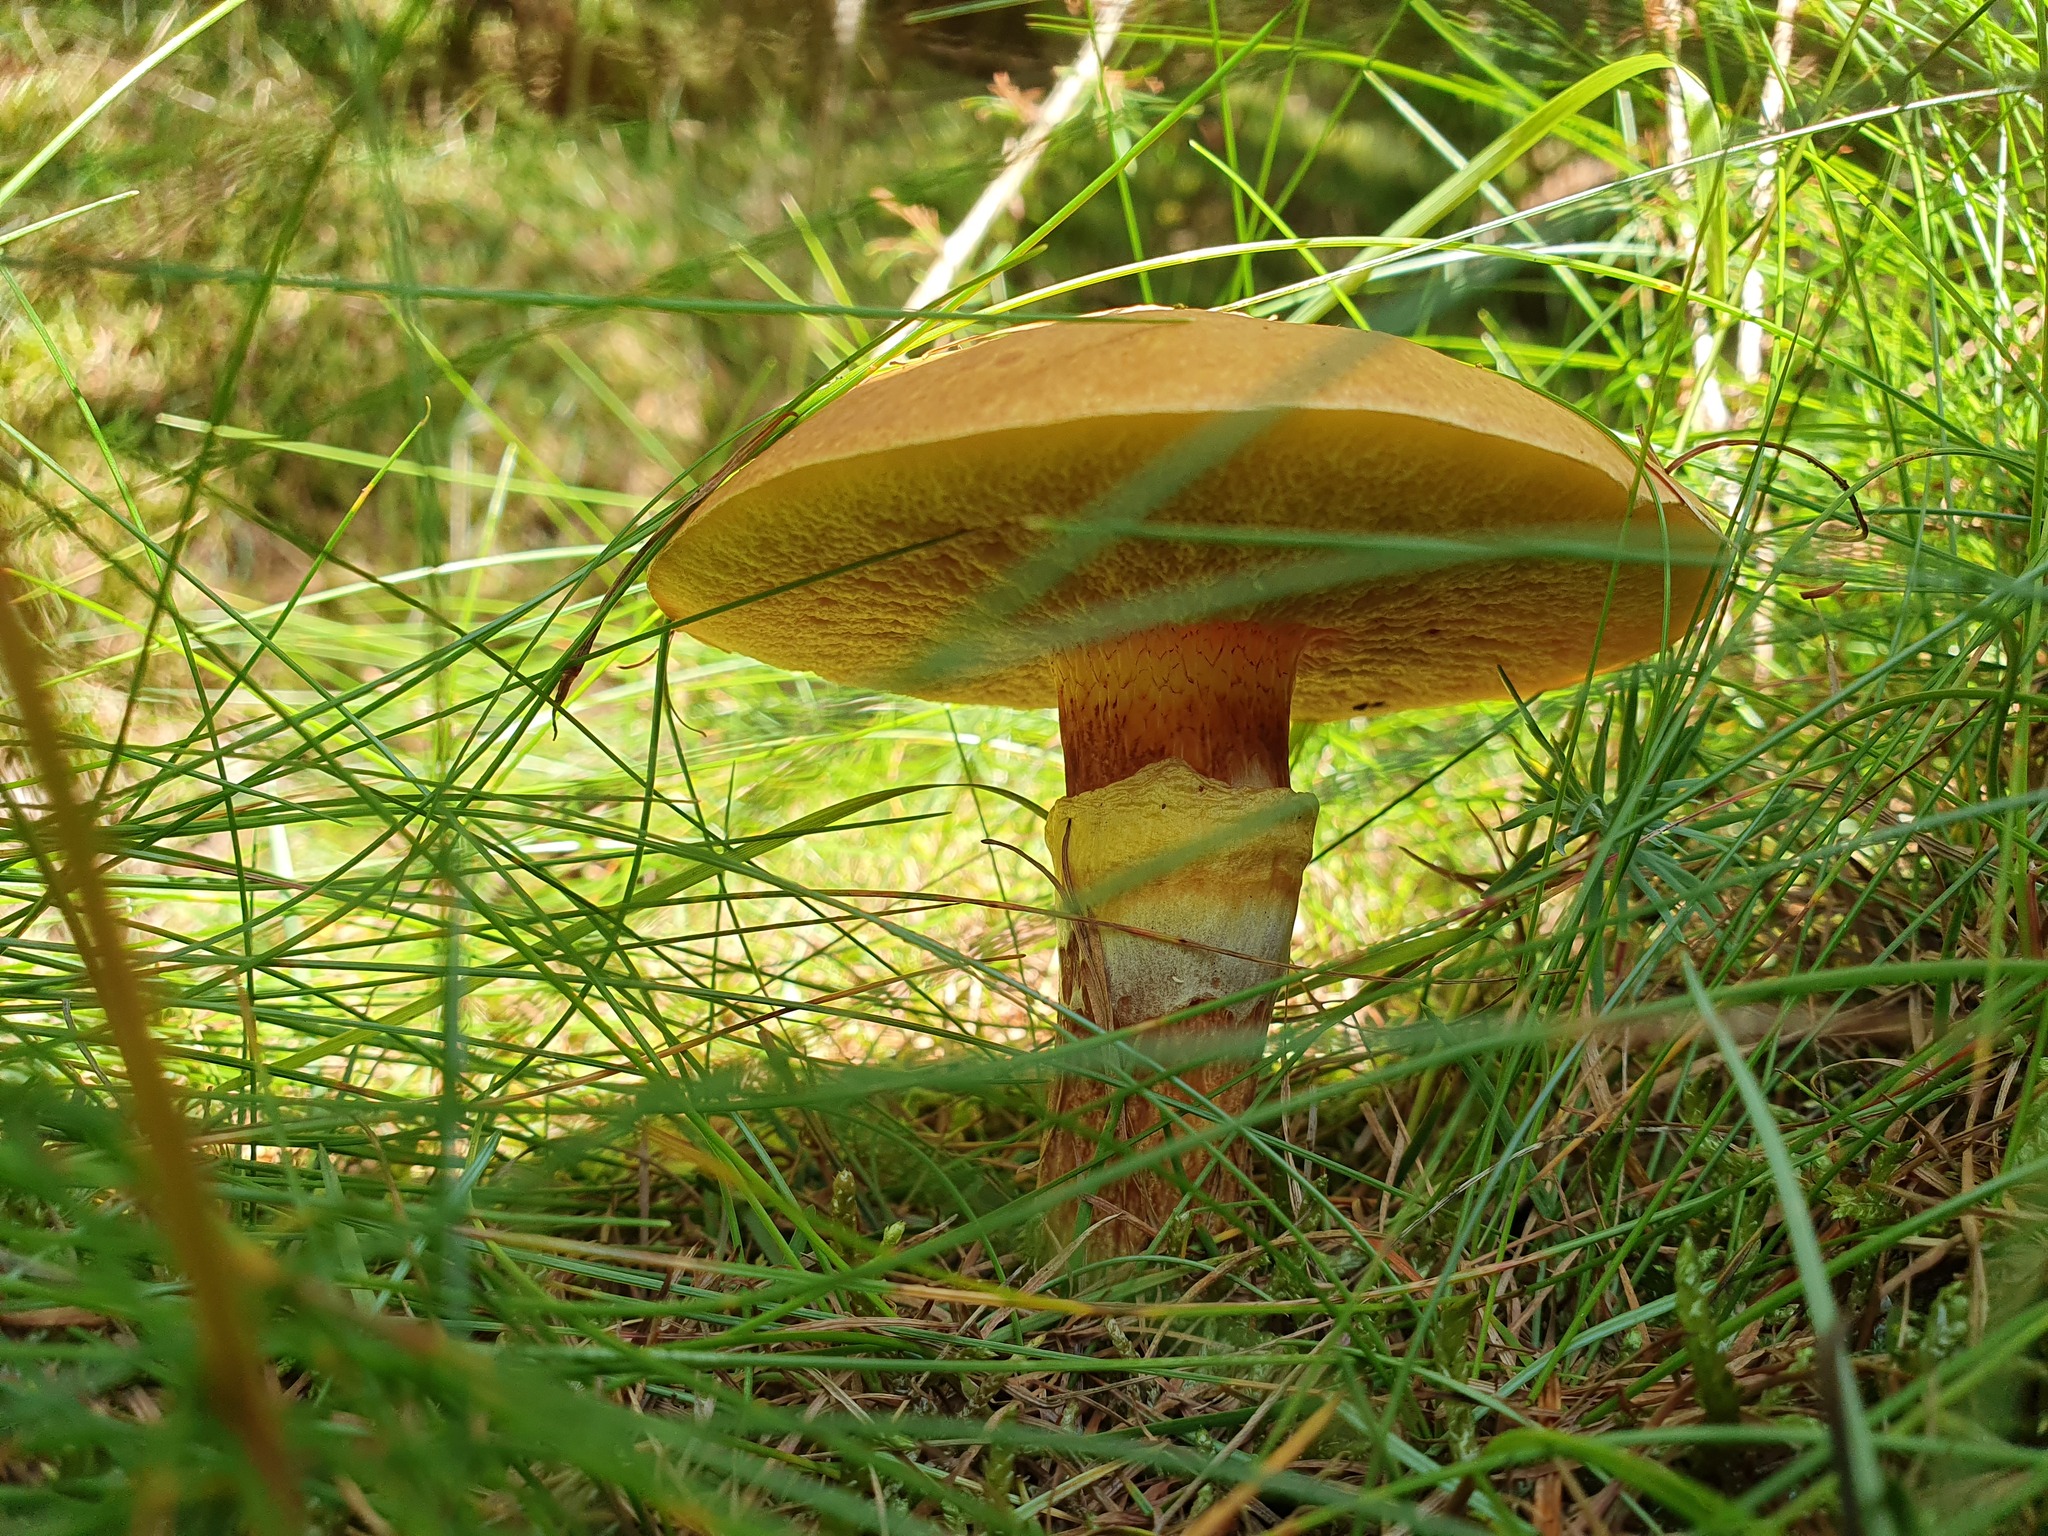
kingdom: Fungi
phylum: Basidiomycota
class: Agaricomycetes
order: Boletales
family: Suillaceae
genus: Suillus
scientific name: Suillus grevillei
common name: Larch bolete
